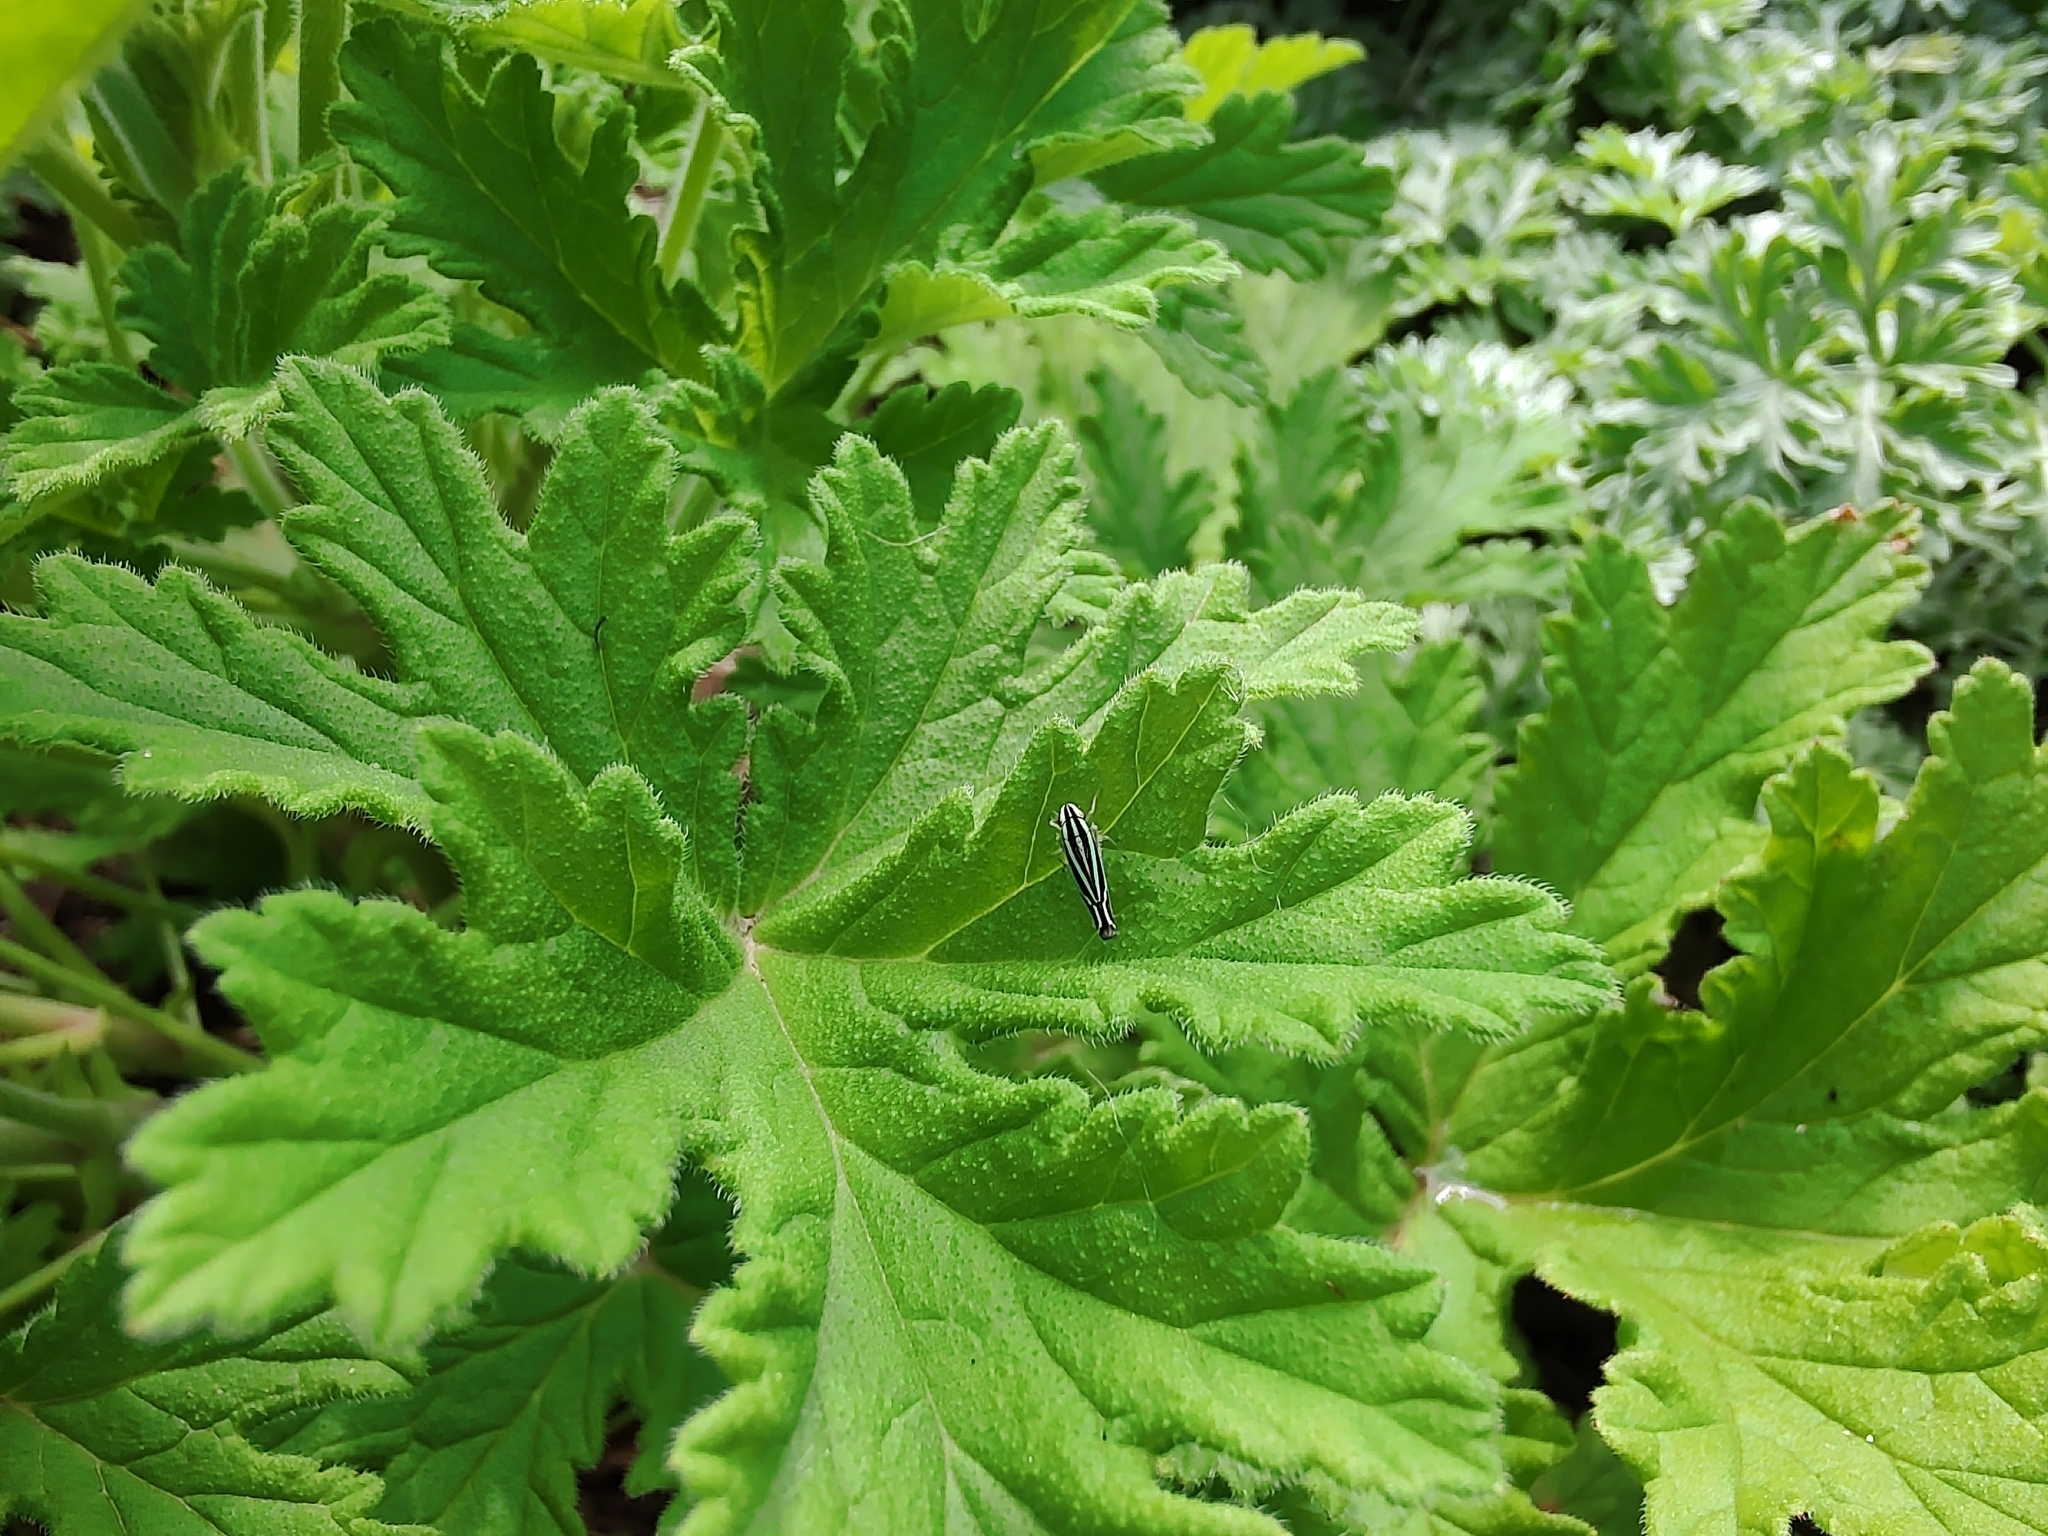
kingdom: Animalia
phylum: Arthropoda
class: Insecta
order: Hemiptera
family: Cicadellidae
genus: Sibovia
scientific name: Sibovia sagata
